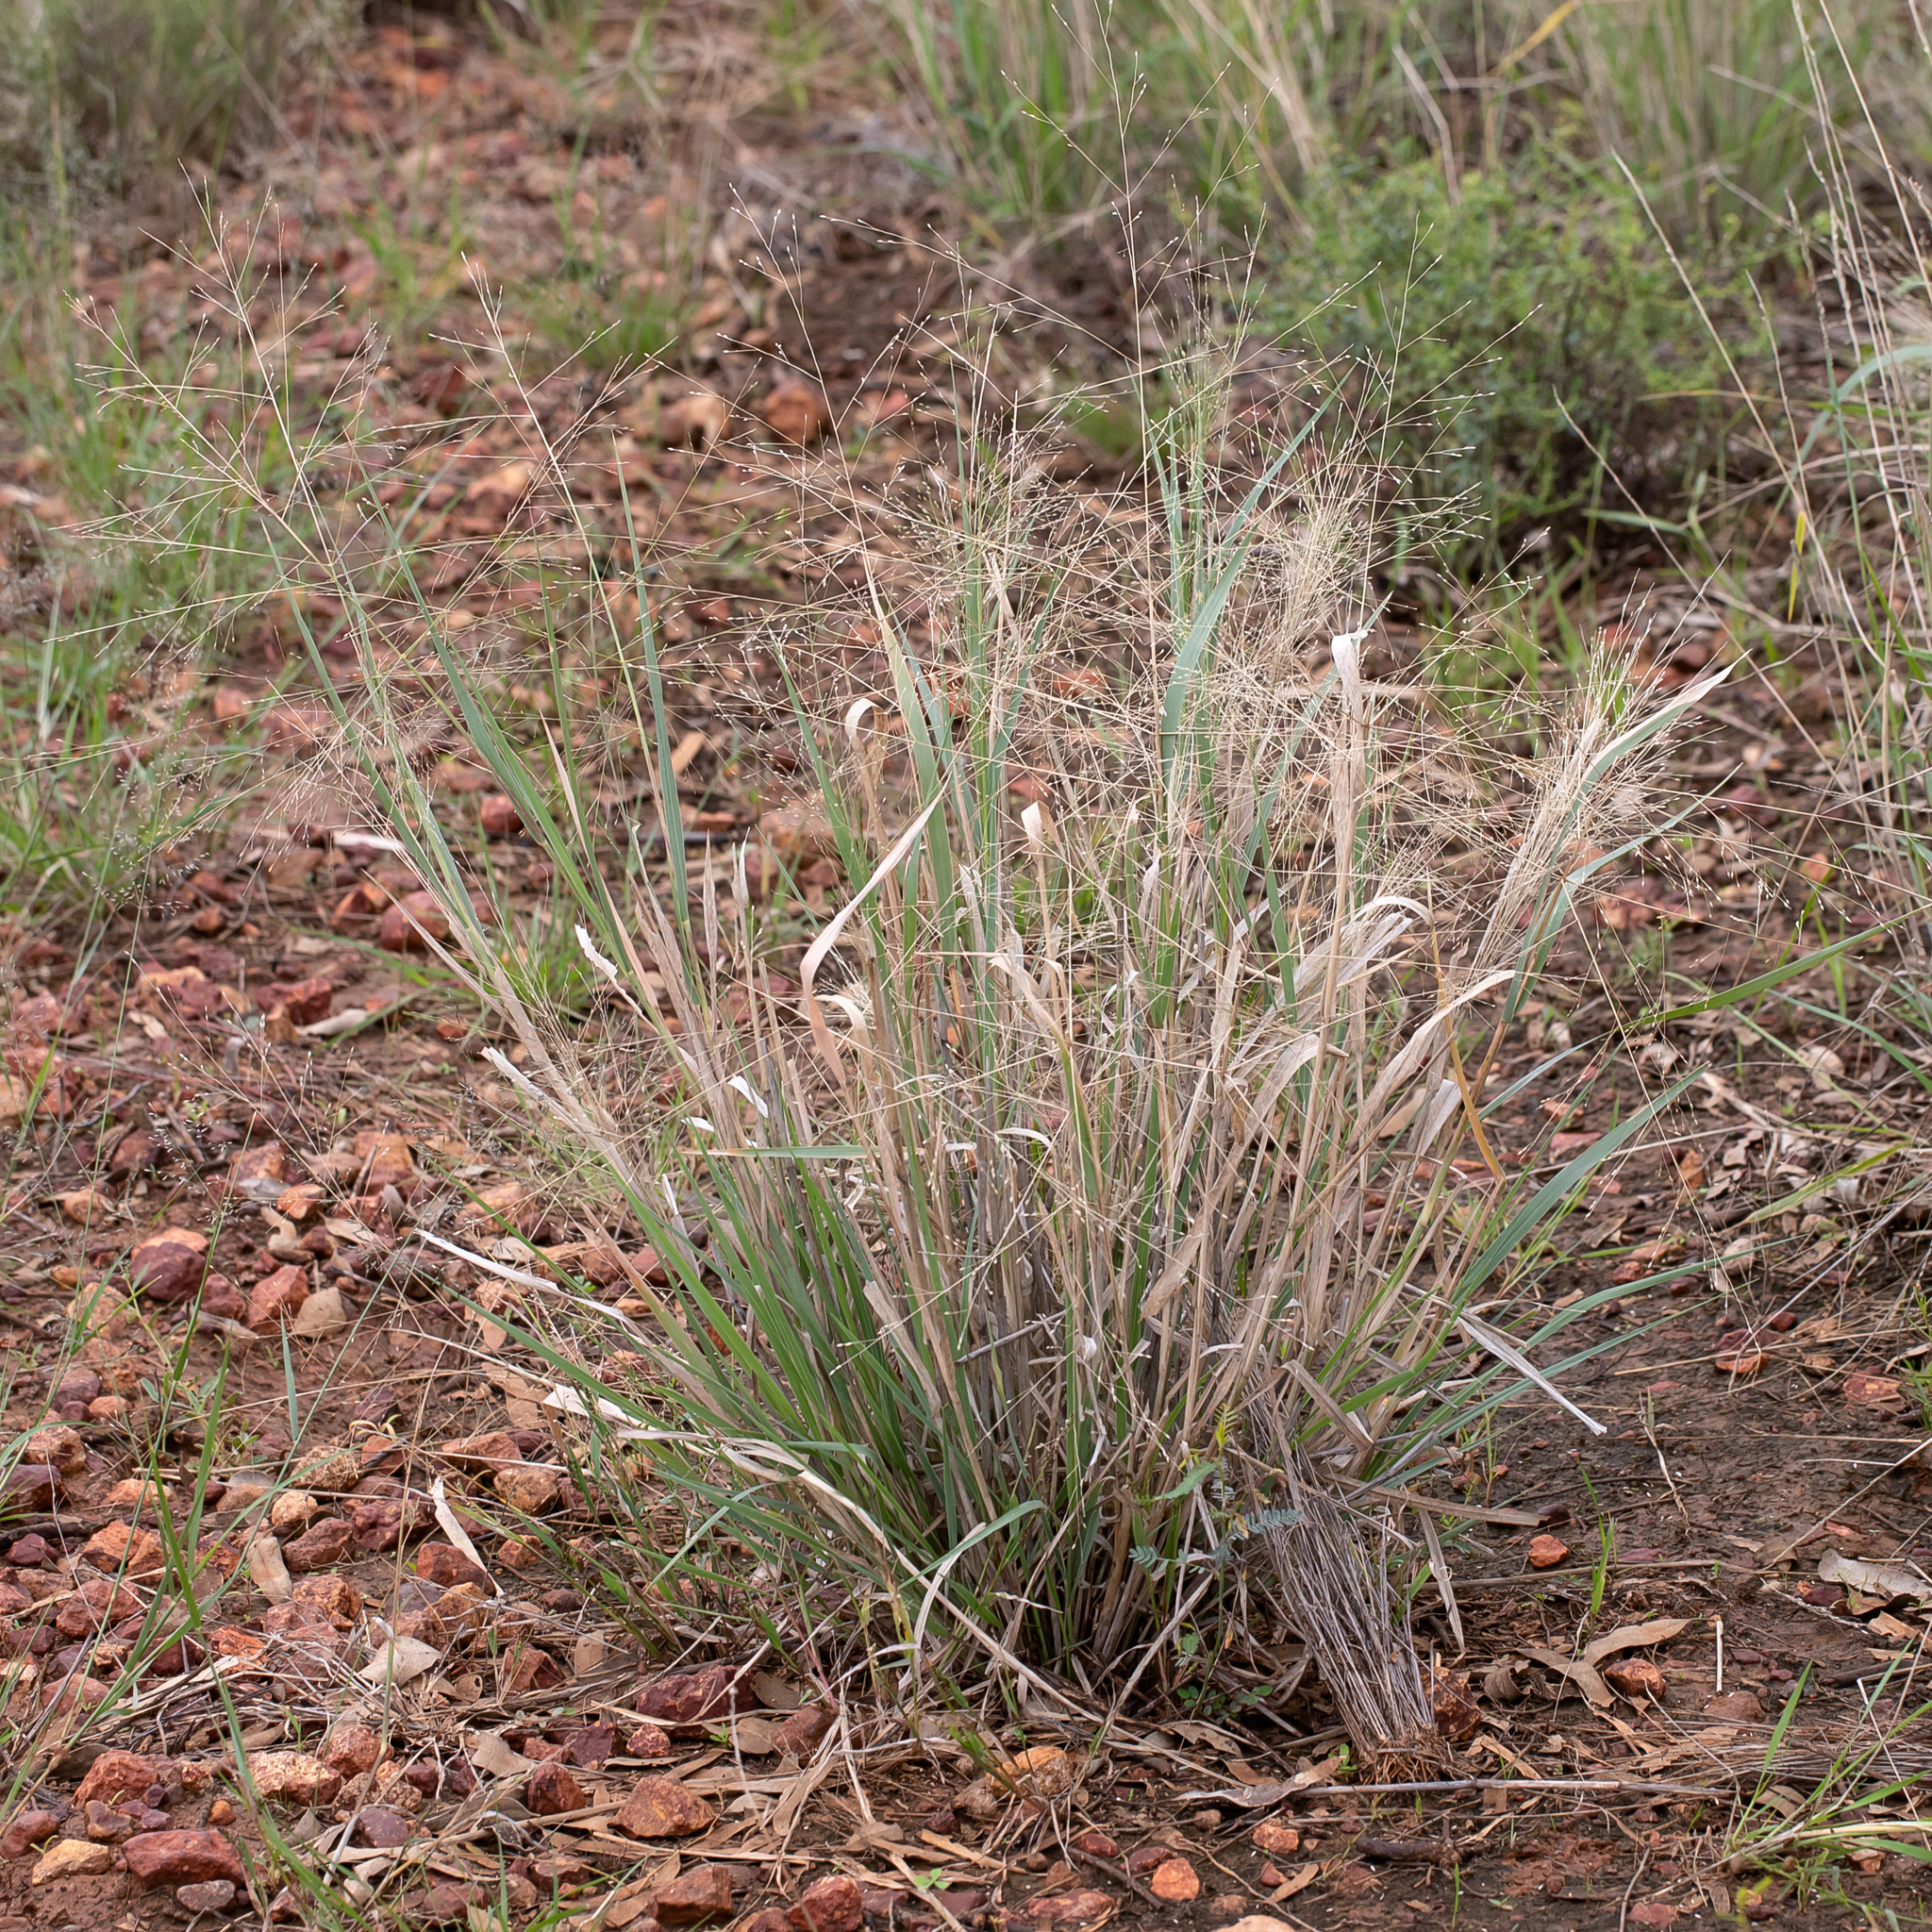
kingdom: Plantae
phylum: Tracheophyta
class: Liliopsida
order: Poales
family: Poaceae
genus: Panicum
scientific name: Panicum decompositum
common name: Australian millet
